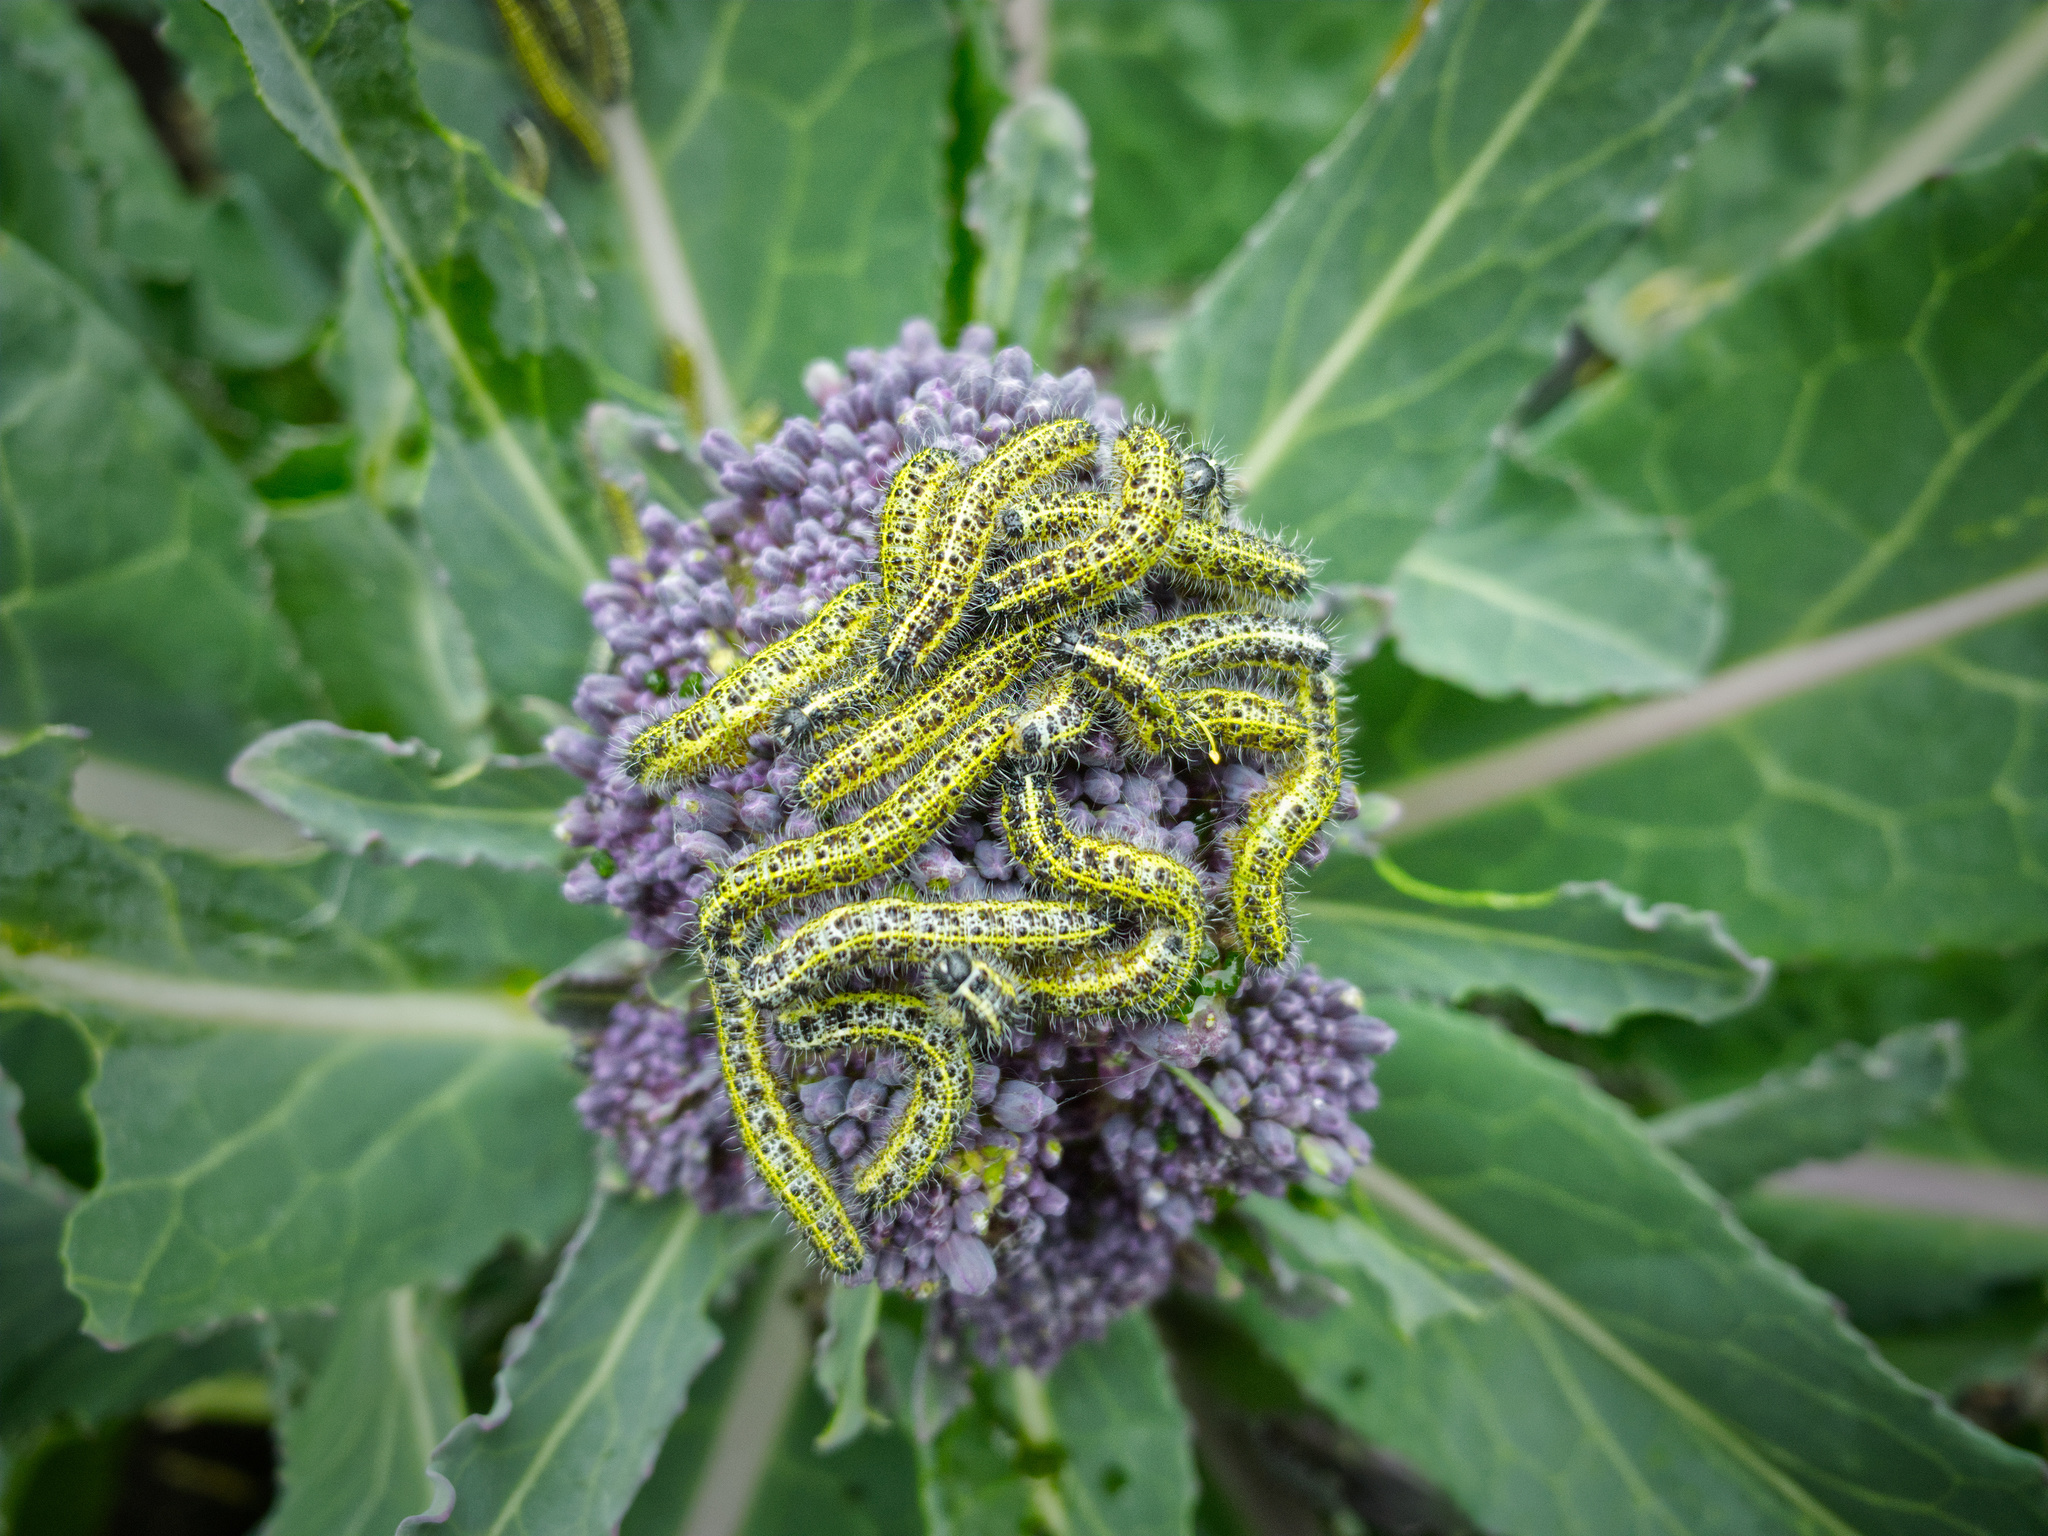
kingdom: Animalia
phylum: Arthropoda
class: Insecta
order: Lepidoptera
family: Pieridae
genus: Pieris
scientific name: Pieris brassicae
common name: Large white
